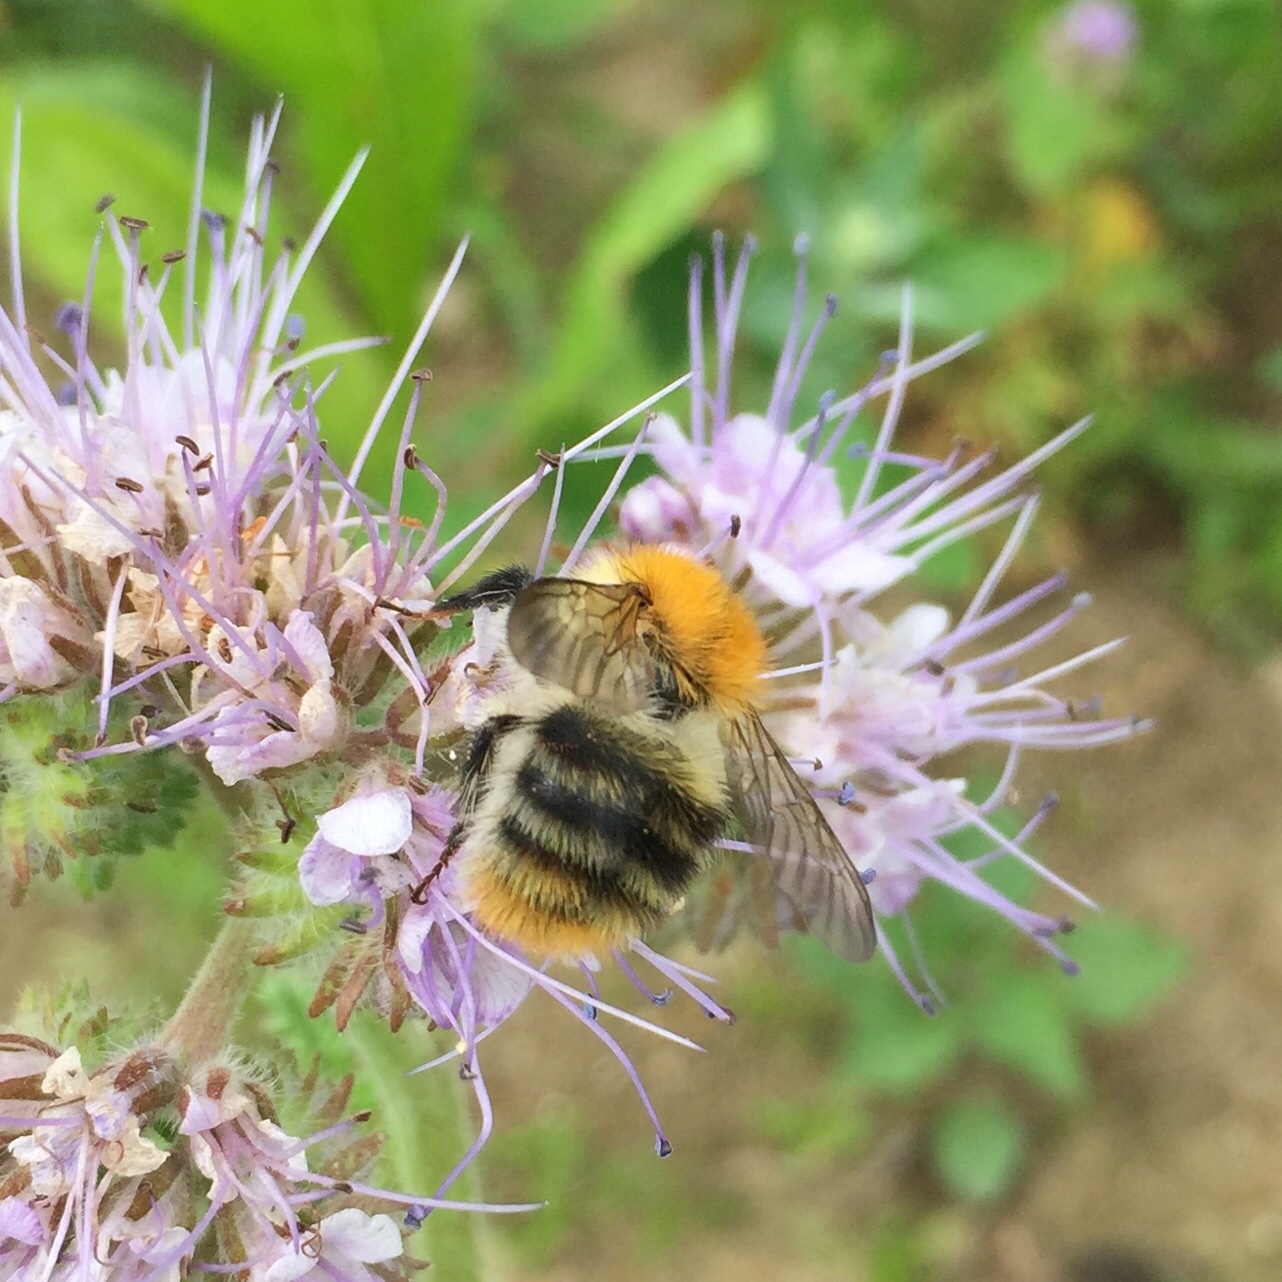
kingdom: Animalia
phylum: Arthropoda
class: Insecta
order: Hymenoptera
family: Apidae
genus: Bombus
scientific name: Bombus pascuorum
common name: Common carder bee
